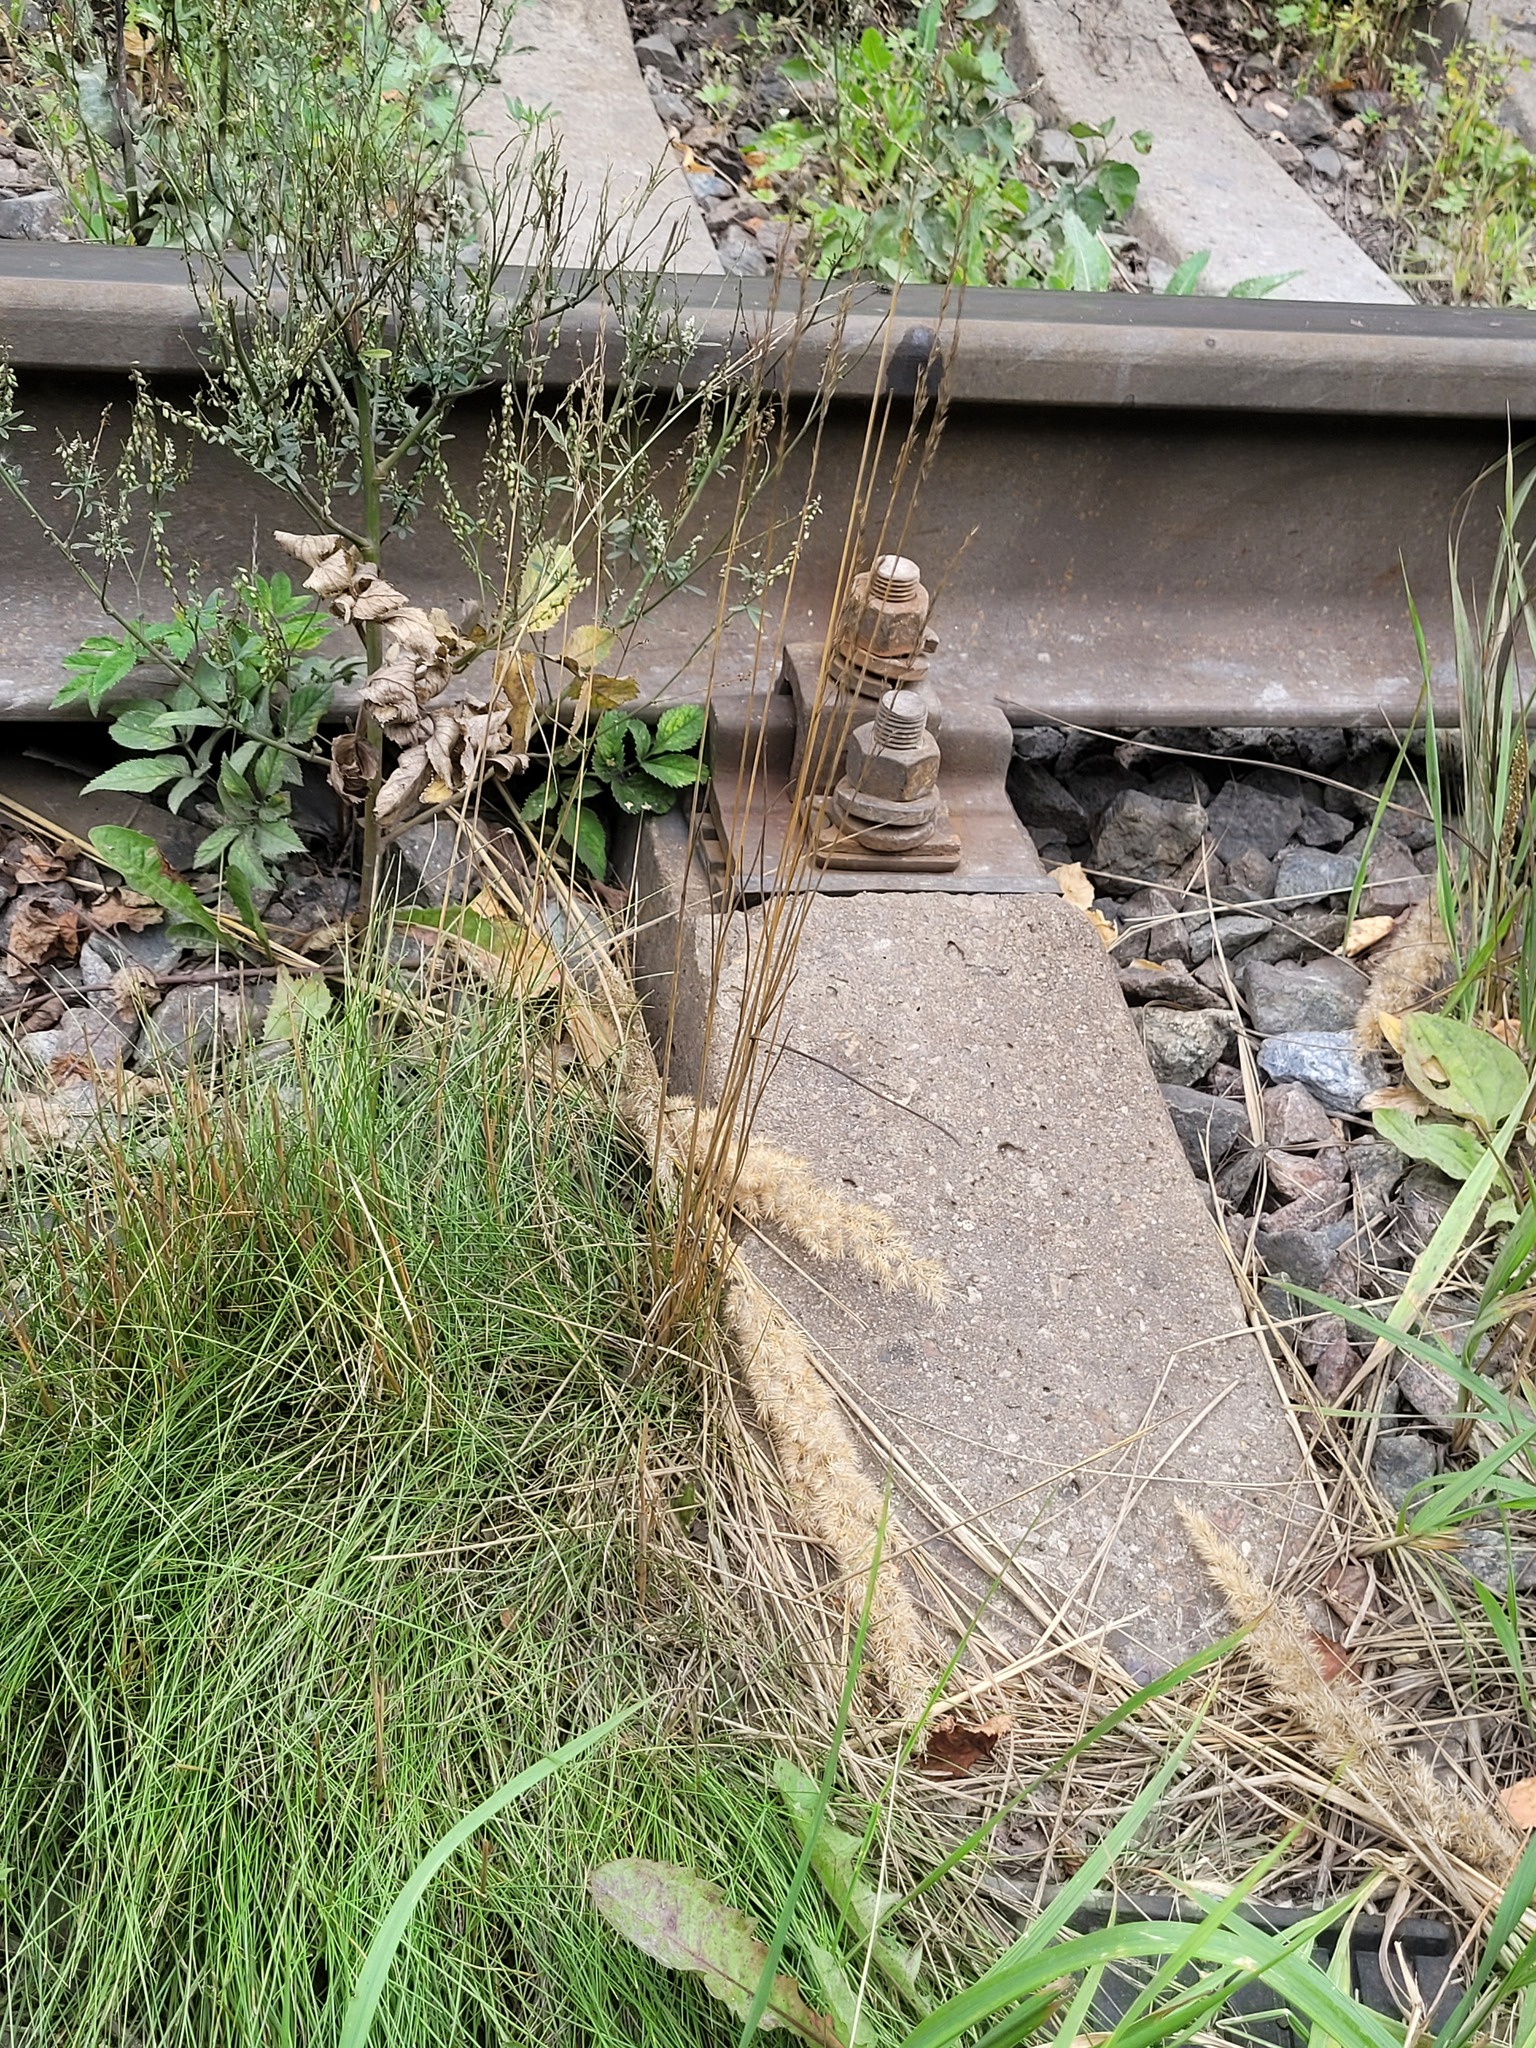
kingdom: Plantae
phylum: Tracheophyta
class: Liliopsida
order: Poales
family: Poaceae
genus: Festuca
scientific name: Festuca rubra
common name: Red fescue
